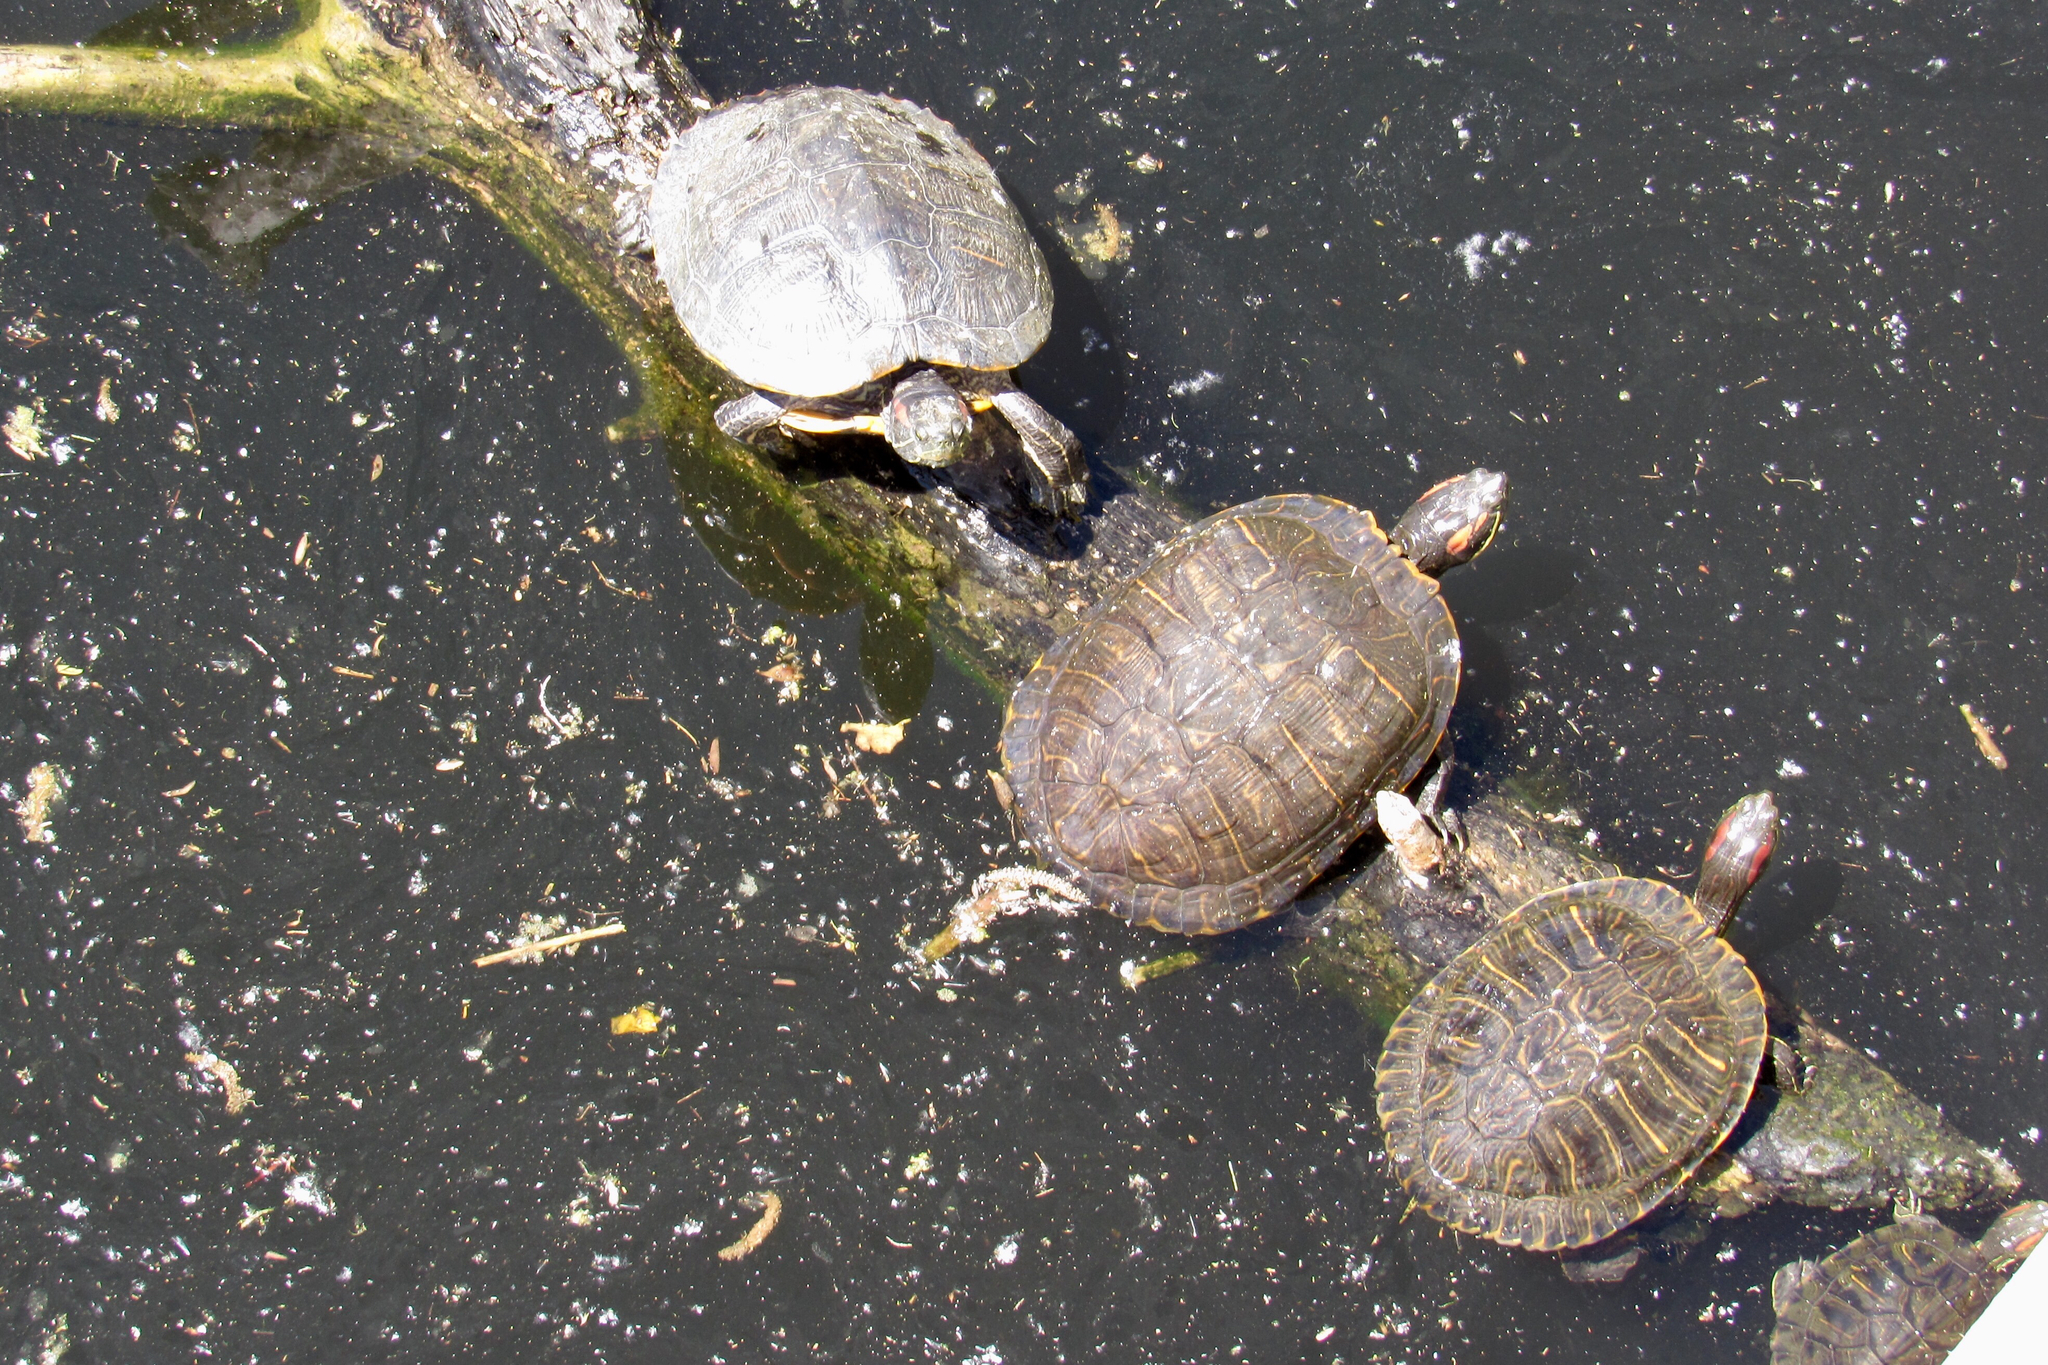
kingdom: Animalia
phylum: Chordata
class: Testudines
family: Emydidae
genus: Trachemys
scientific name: Trachemys scripta
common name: Slider
